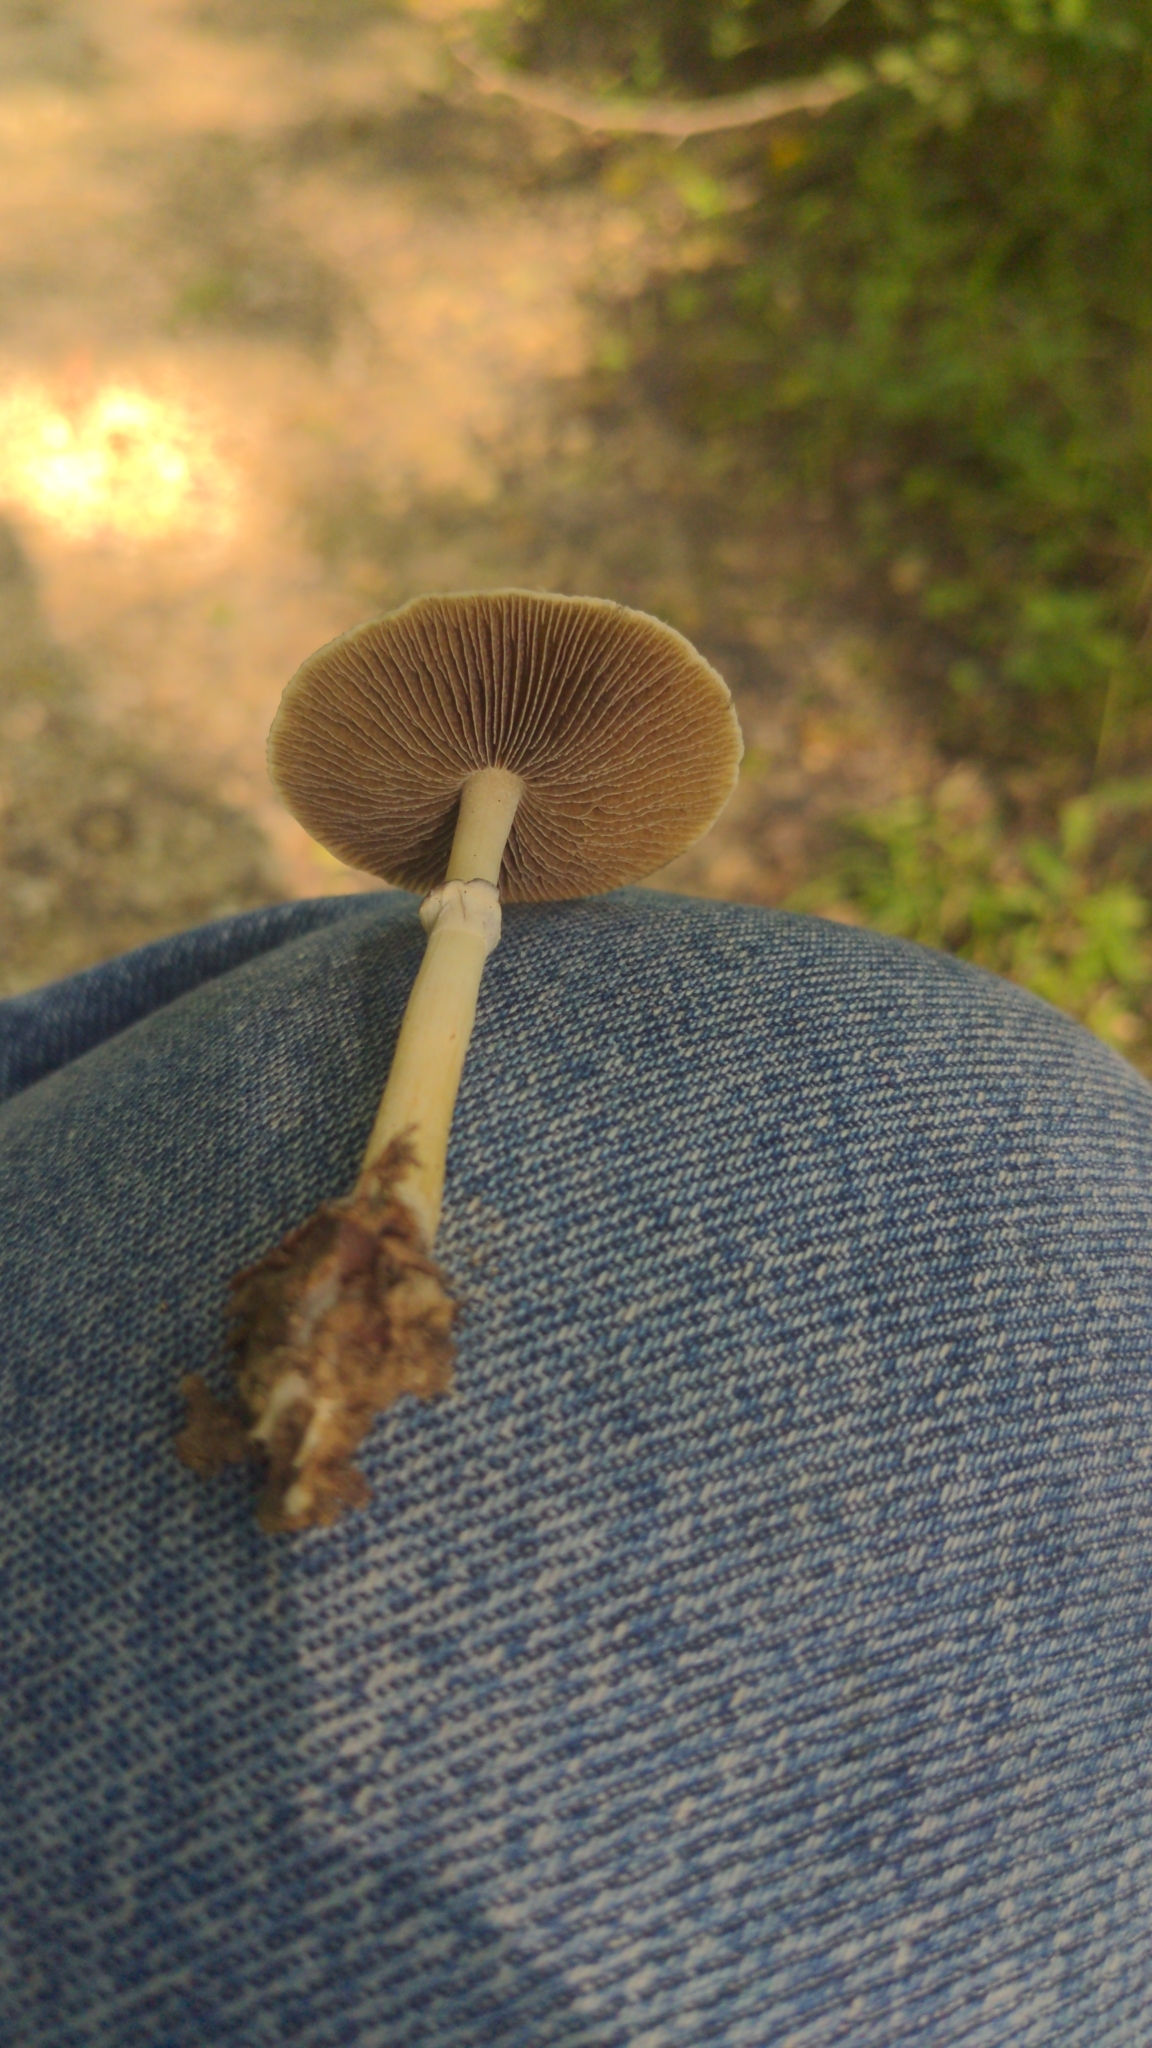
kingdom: Fungi
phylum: Basidiomycota
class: Agaricomycetes
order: Agaricales
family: Hymenogastraceae
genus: Psilocybe
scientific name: Psilocybe cubensis
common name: Golden brownie
